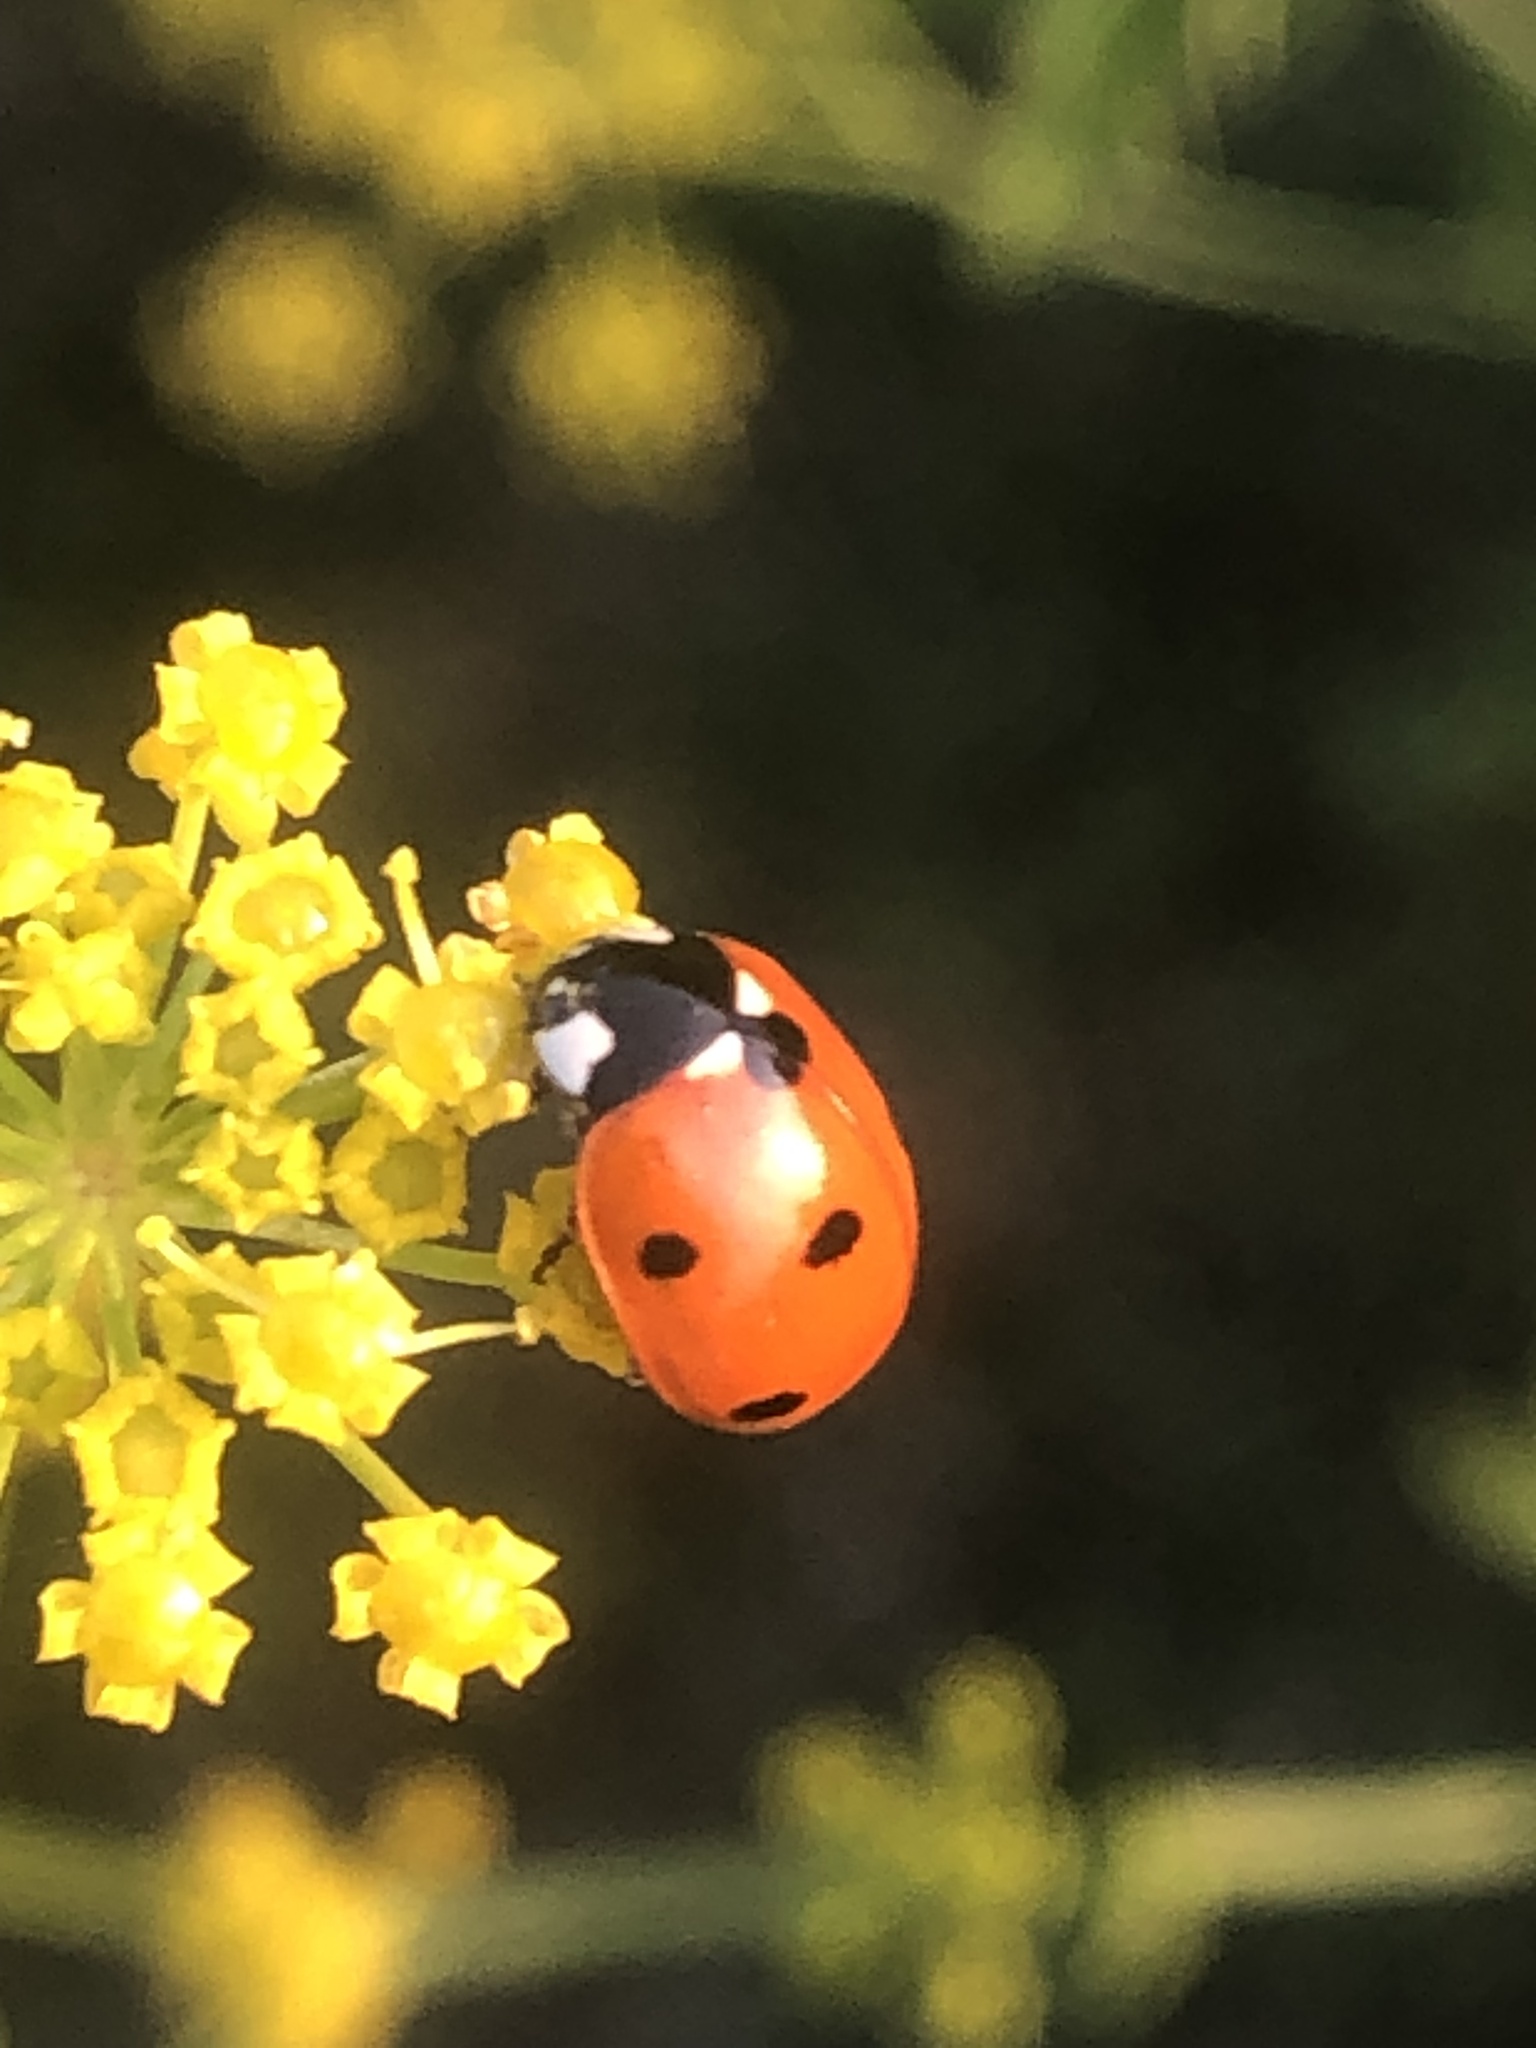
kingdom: Animalia
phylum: Arthropoda
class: Insecta
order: Coleoptera
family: Coccinellidae
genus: Coccinella
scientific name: Coccinella septempunctata
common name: Sevenspotted lady beetle
